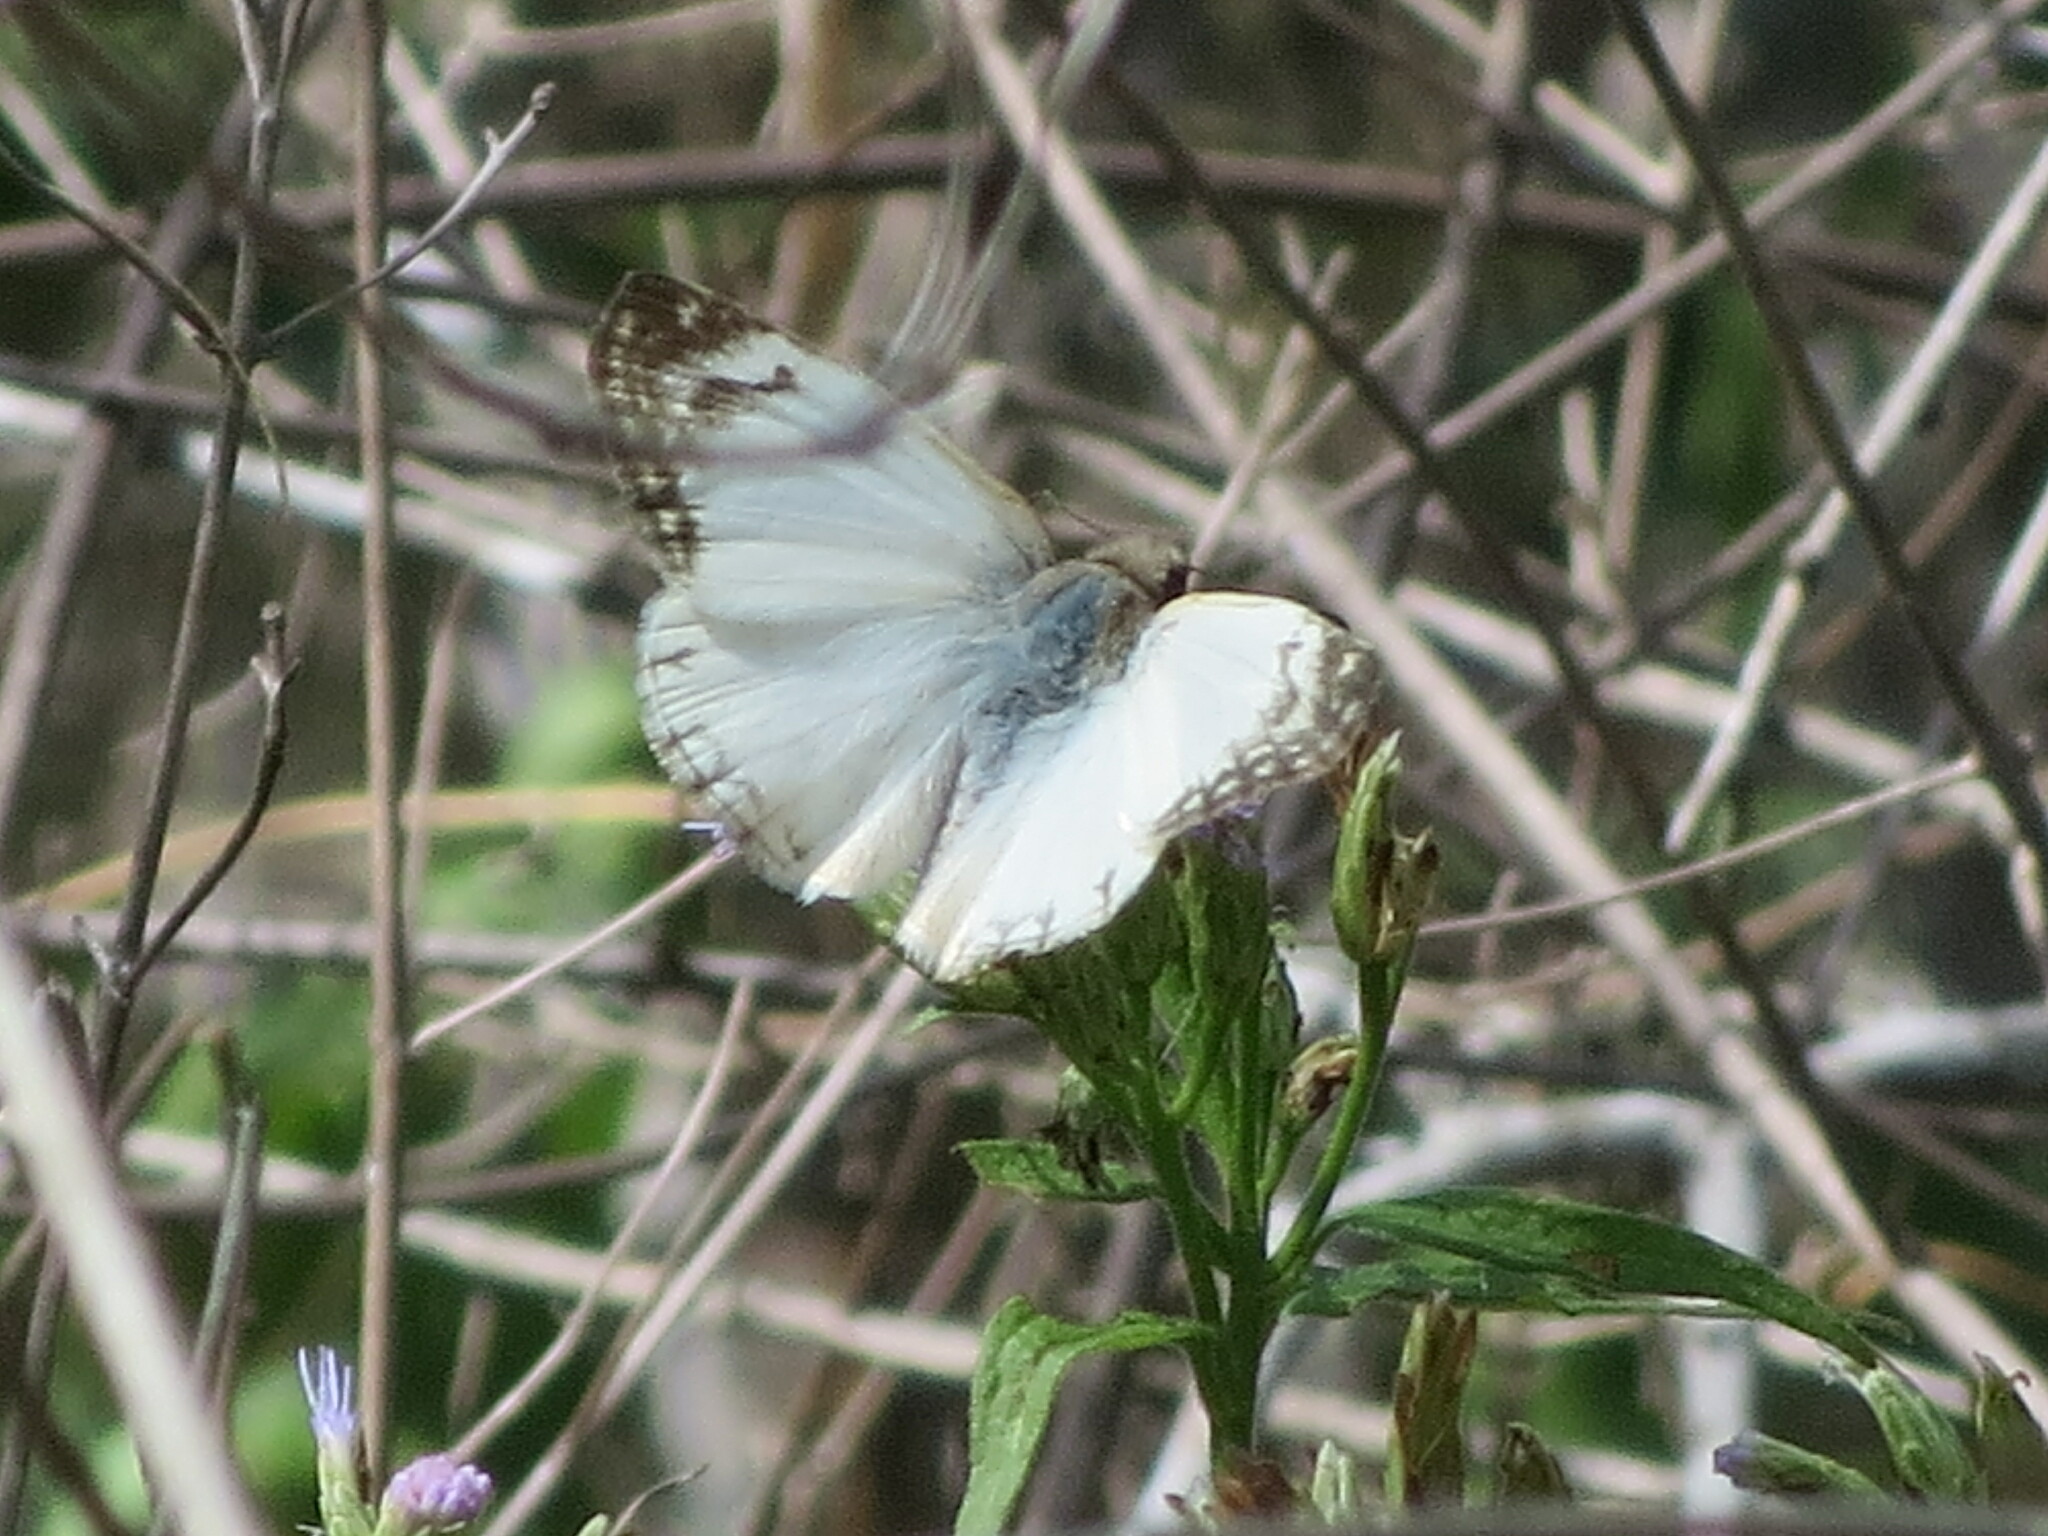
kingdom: Animalia
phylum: Arthropoda
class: Insecta
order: Lepidoptera
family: Hesperiidae
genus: Heliopetes
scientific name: Heliopetes laviana
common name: Laviana white-skipper
